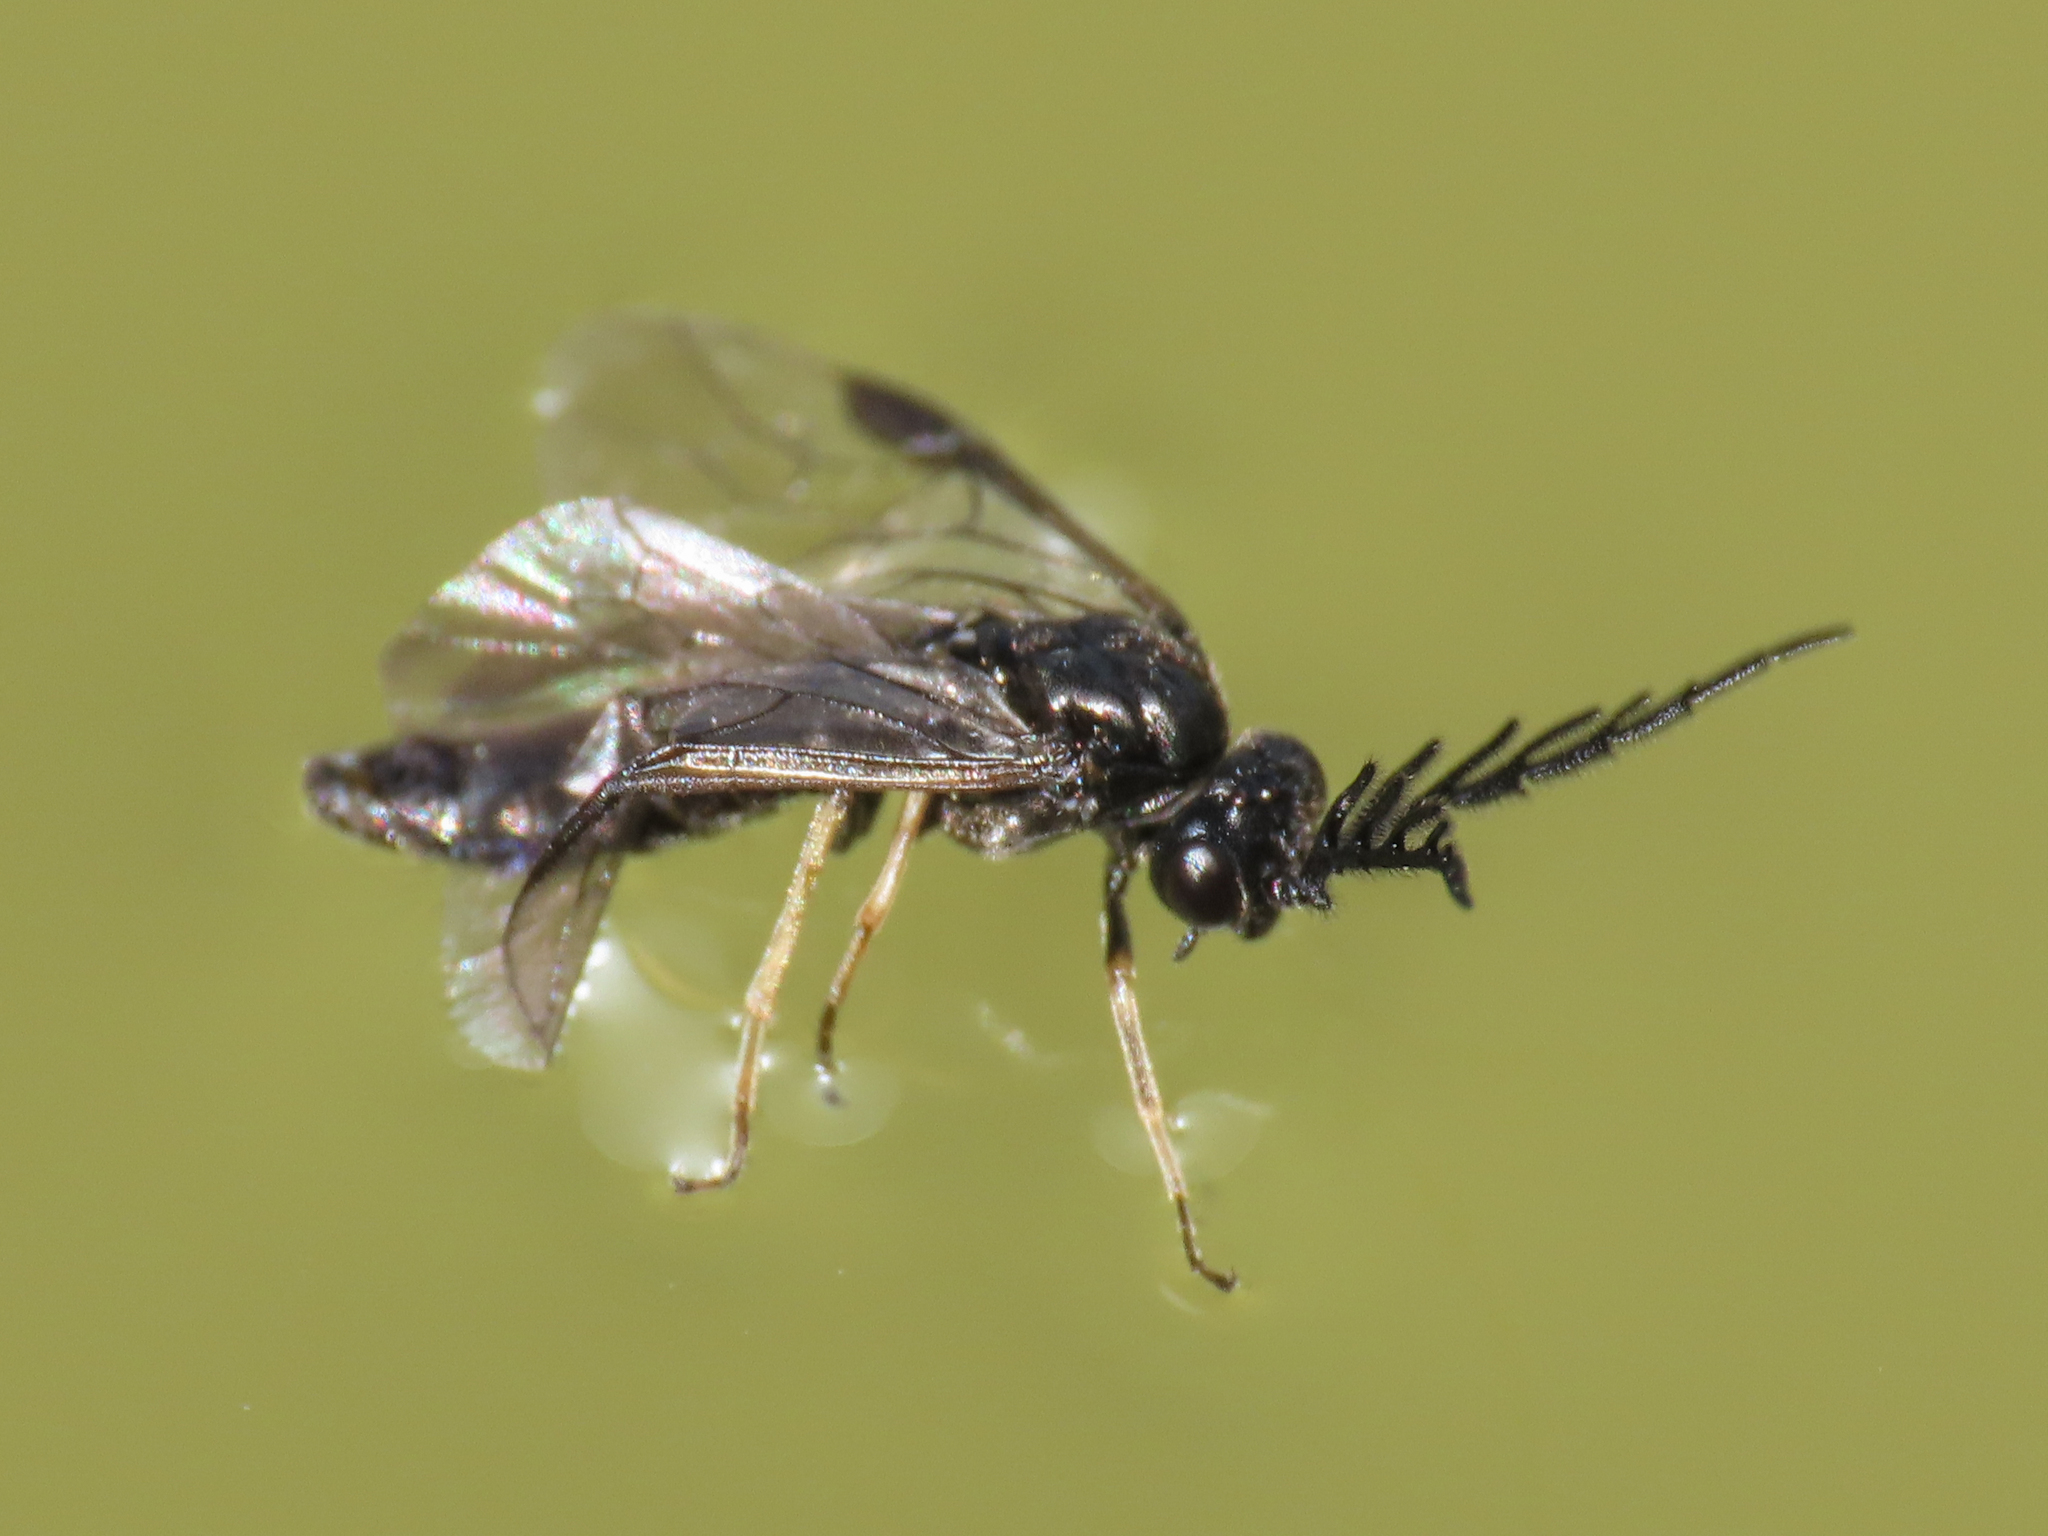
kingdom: Animalia
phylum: Arthropoda
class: Insecta
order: Hymenoptera
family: Tenthredinidae
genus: Cladius
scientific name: Cladius pectinicornis
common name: Sawfly
